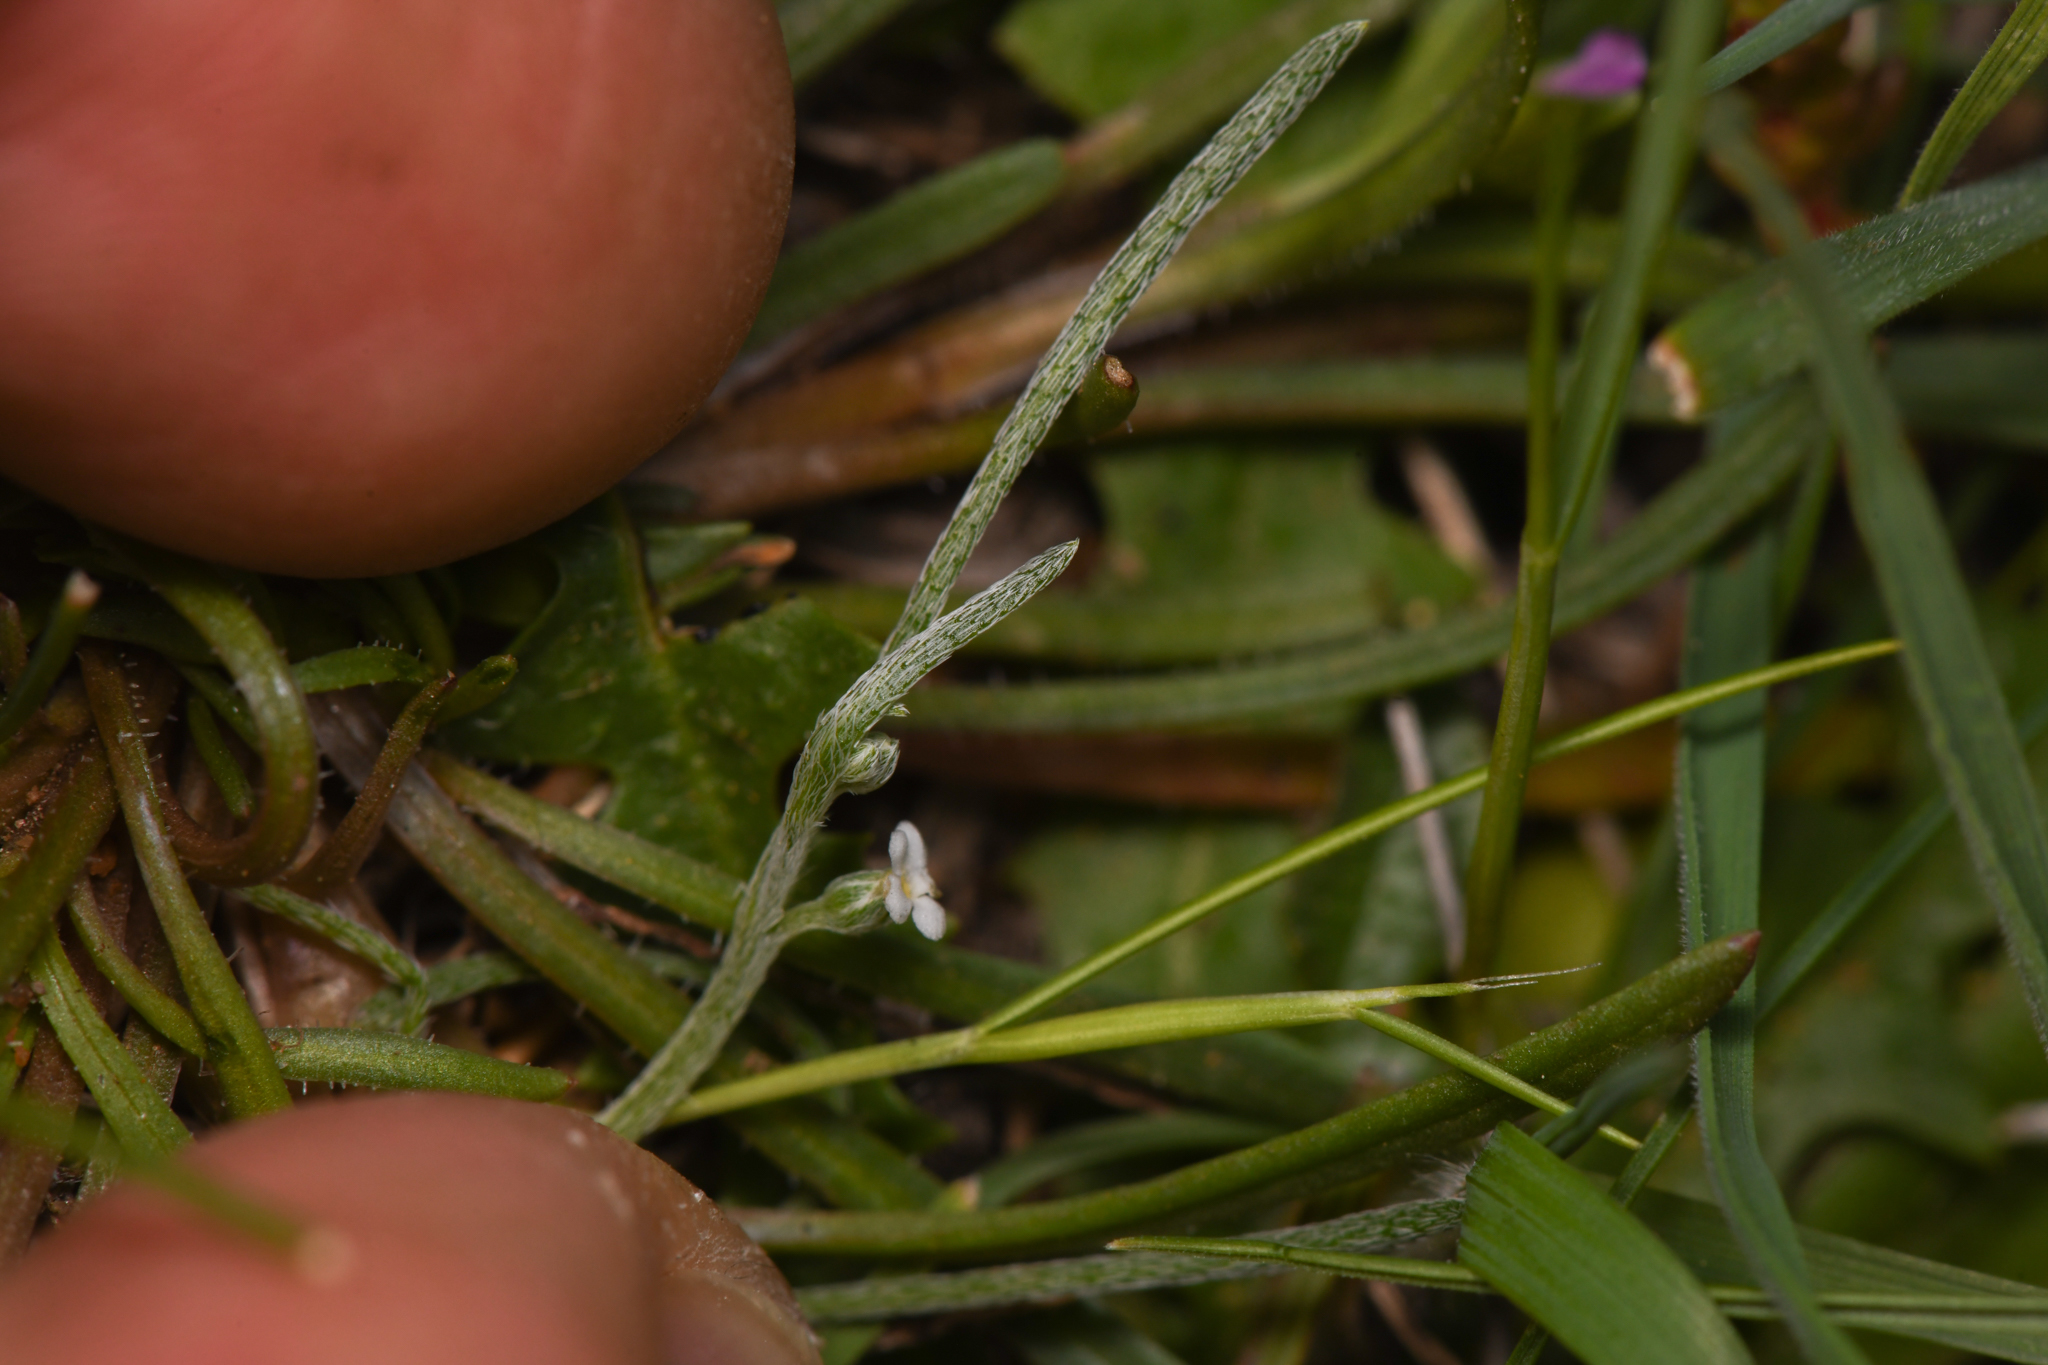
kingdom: Plantae
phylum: Tracheophyta
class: Magnoliopsida
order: Boraginales
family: Boraginaceae
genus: Pectocarya
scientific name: Pectocarya linearis
